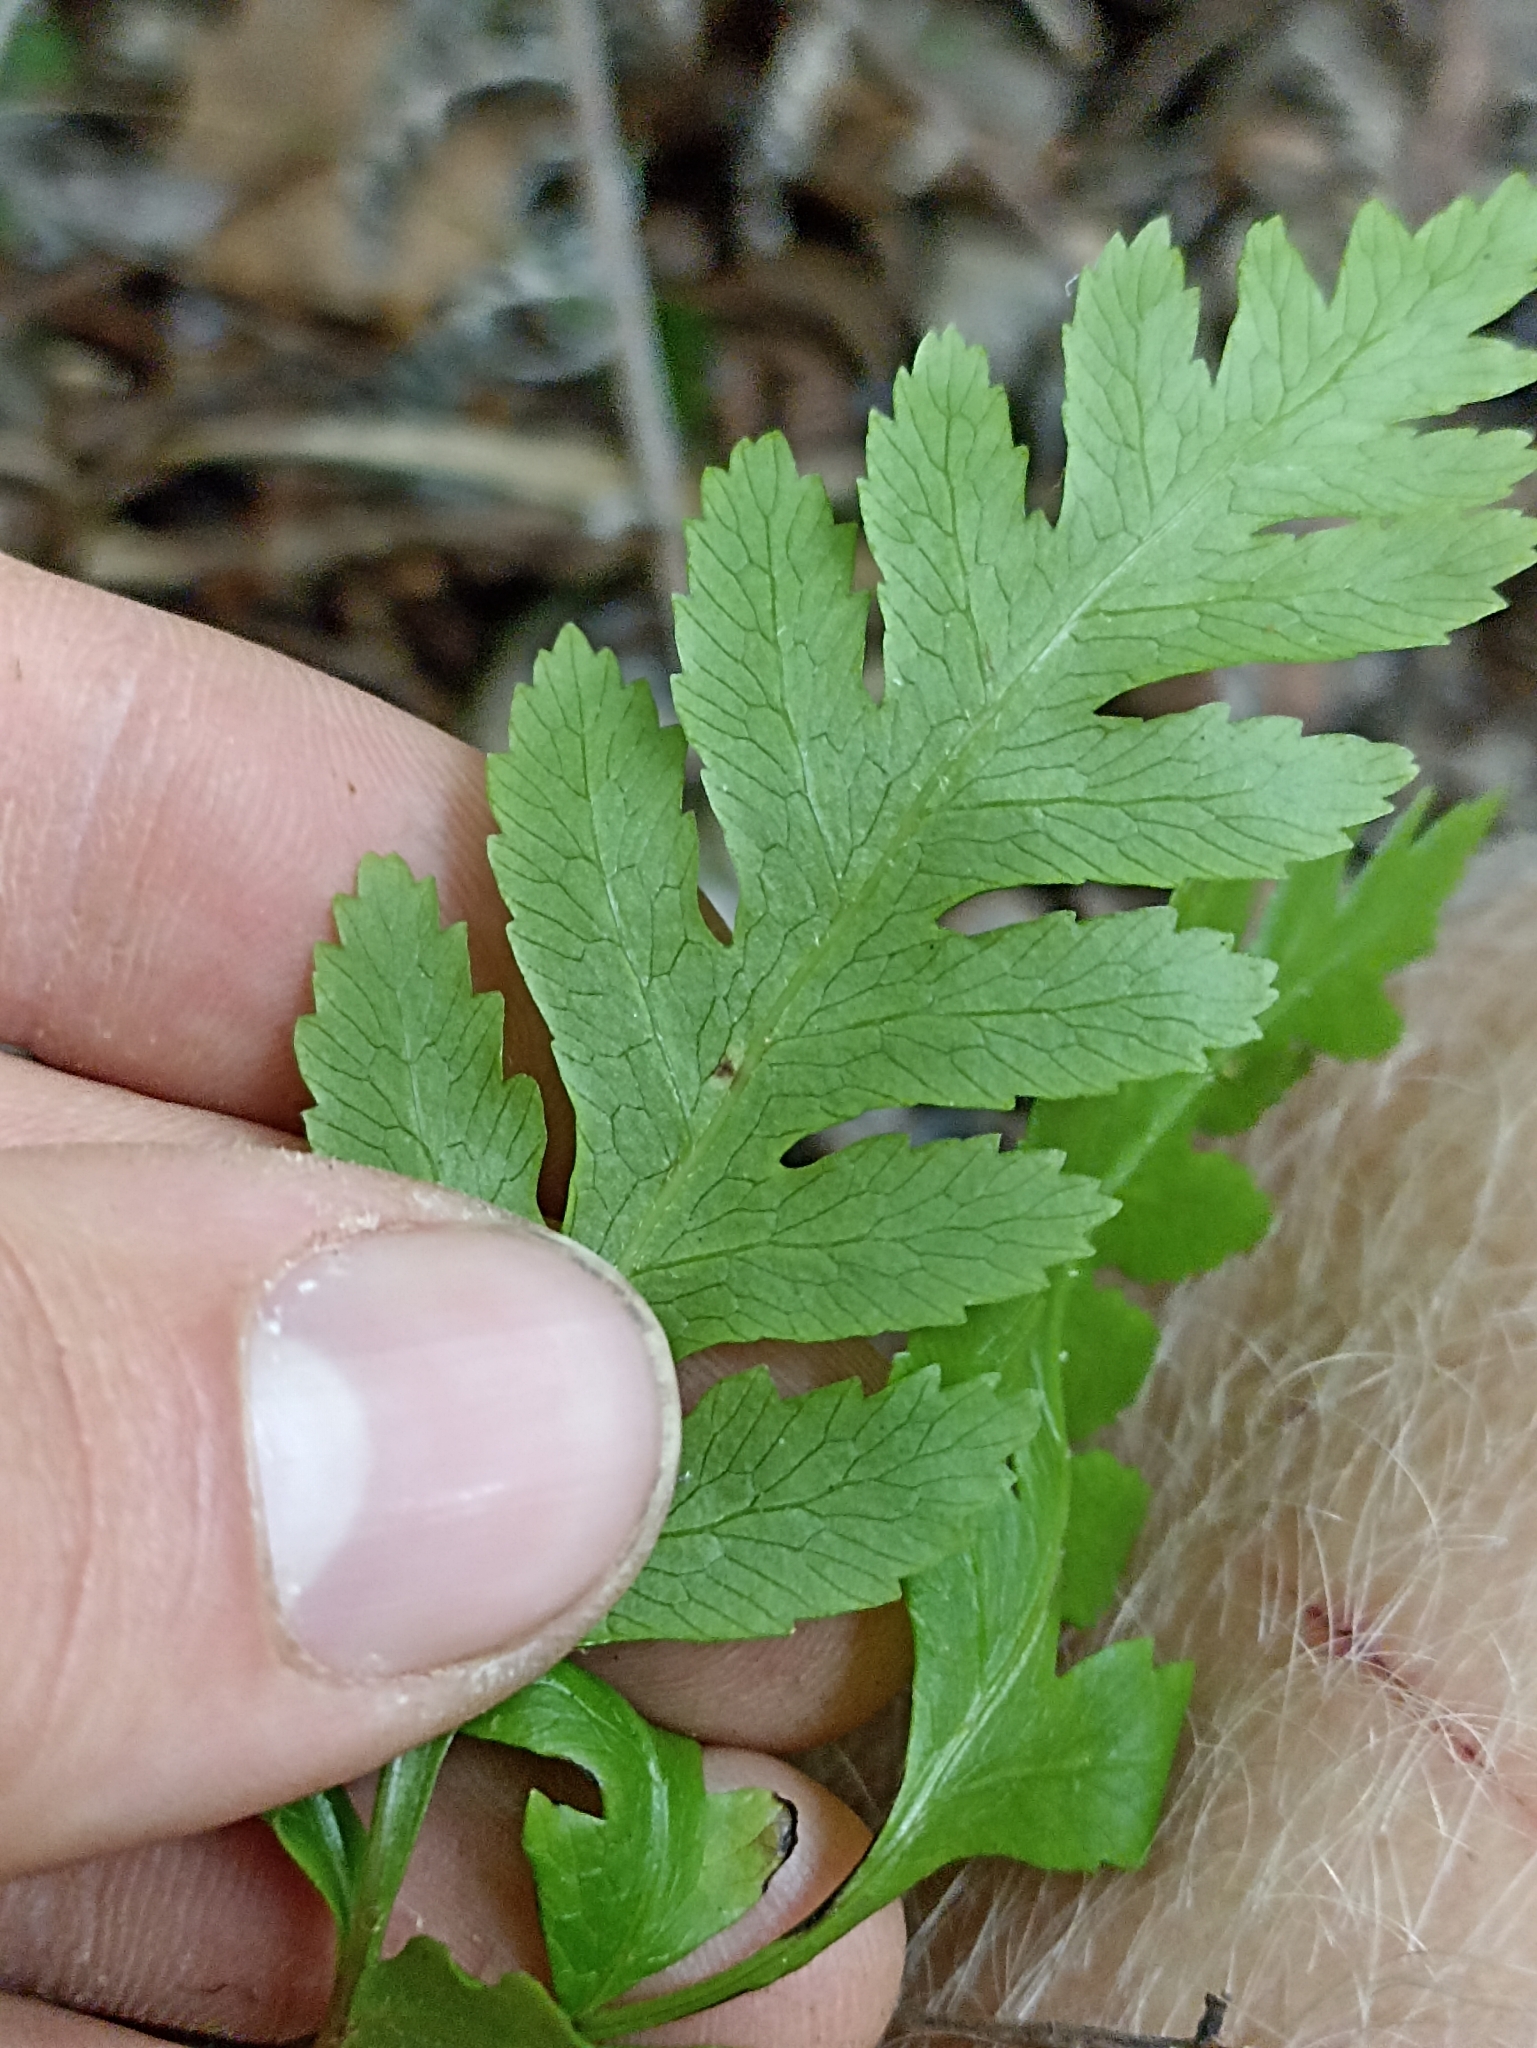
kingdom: Plantae
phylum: Tracheophyta
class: Polypodiopsida
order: Polypodiales
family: Pteridaceae
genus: Pteris
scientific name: Pteris macilenta
